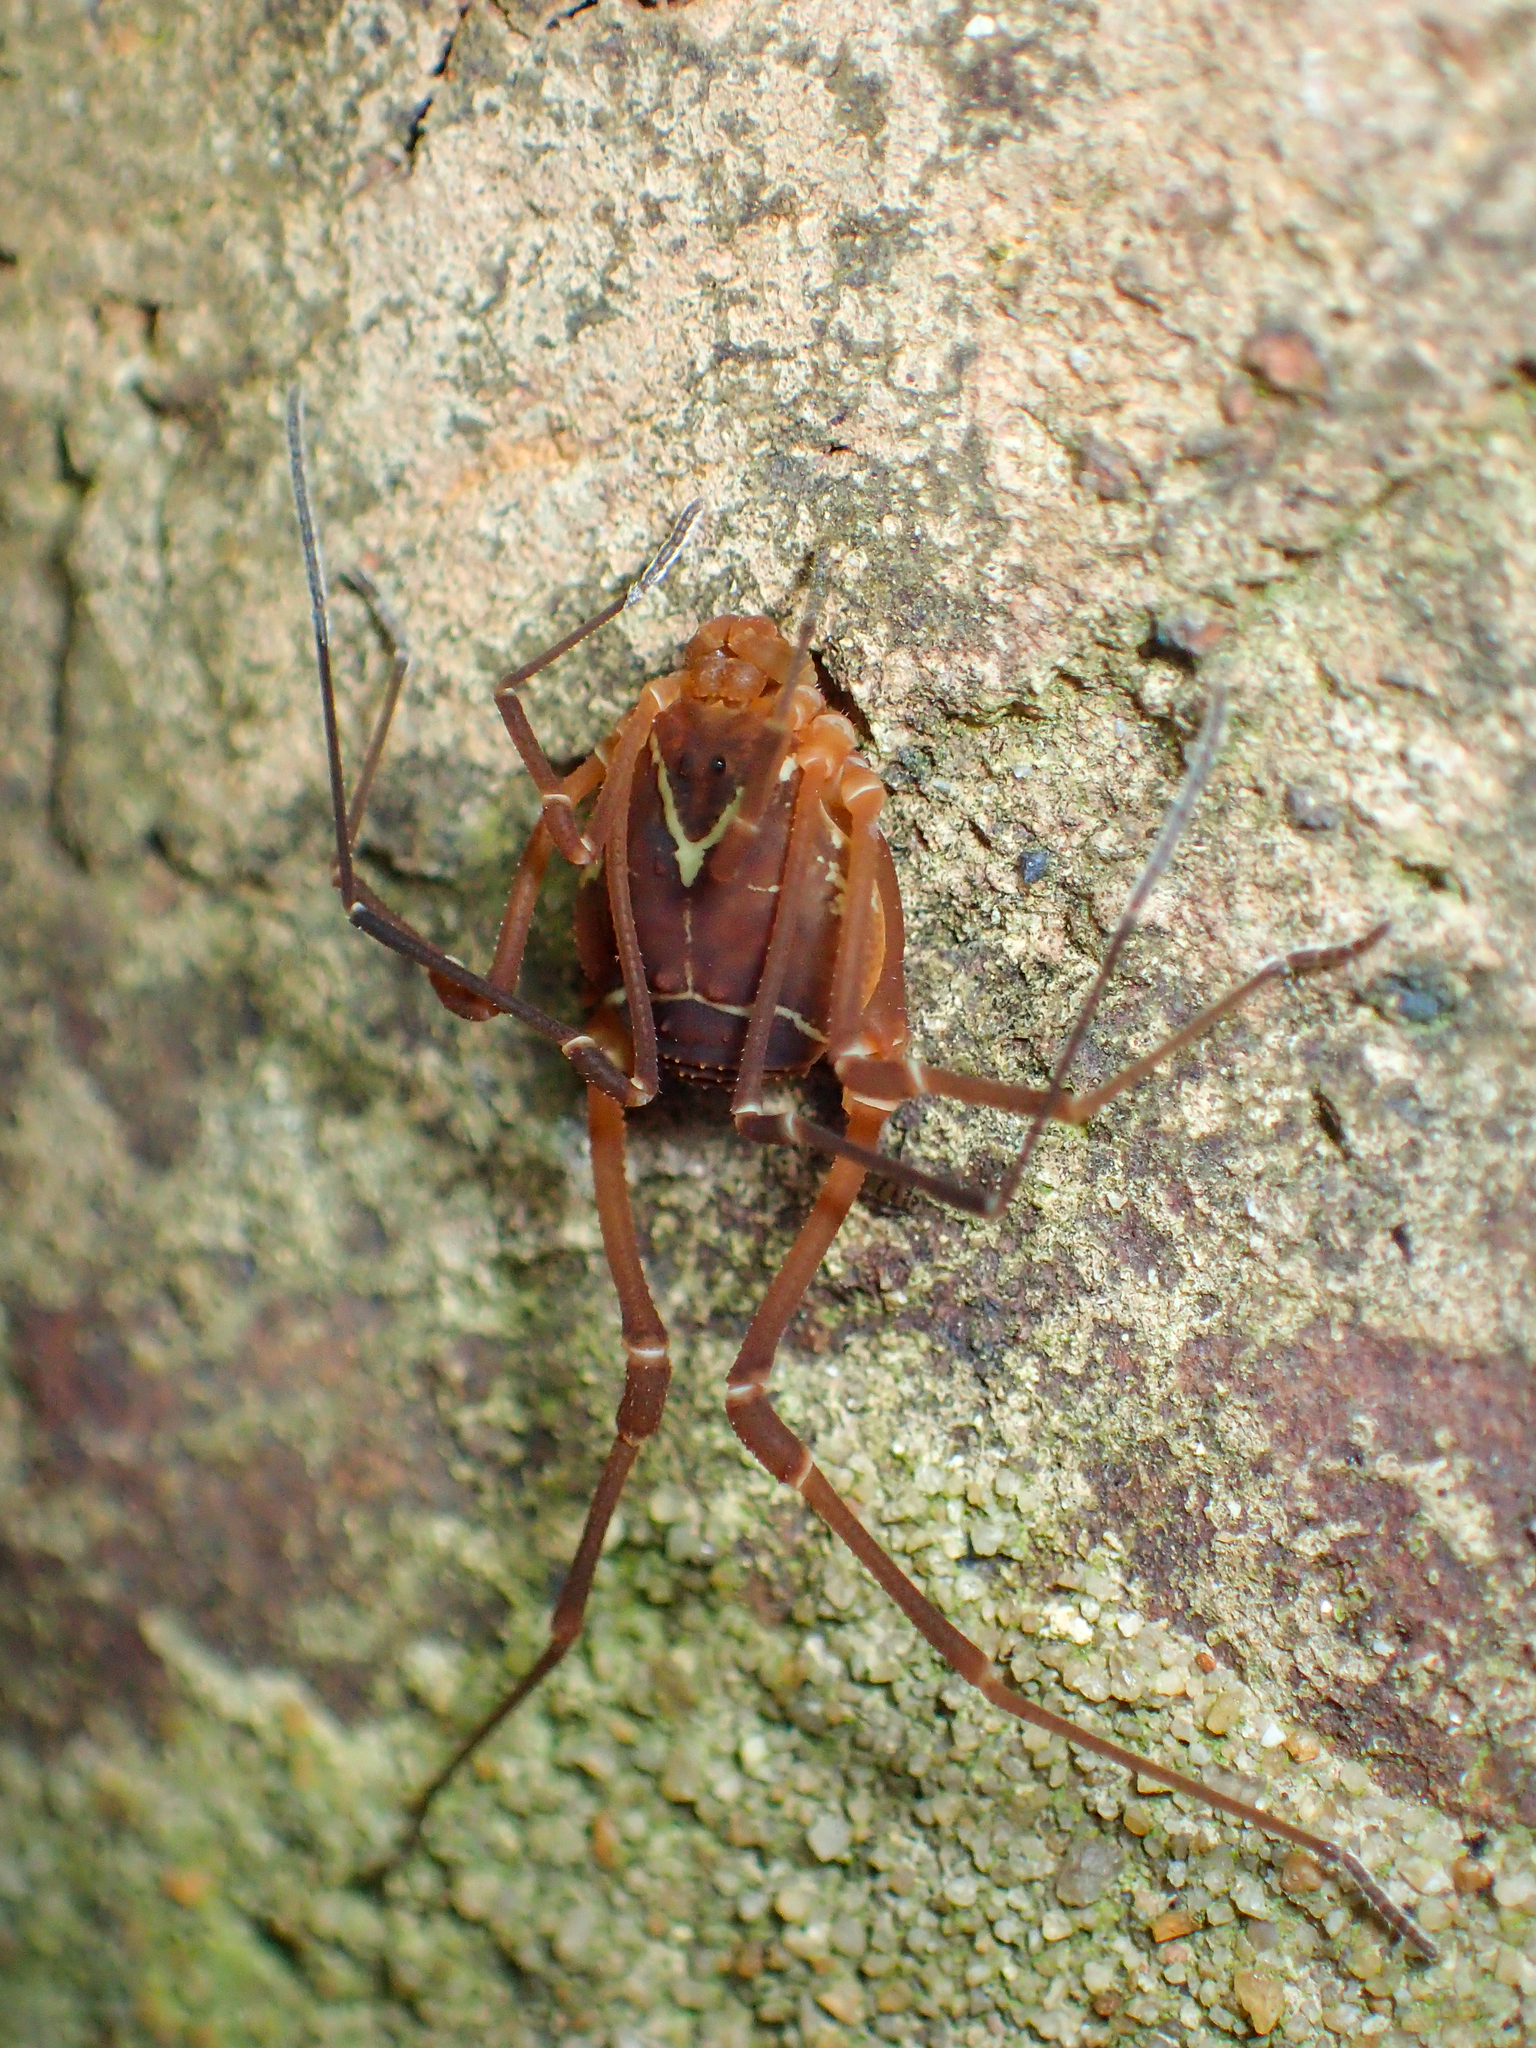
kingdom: Animalia
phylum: Arthropoda
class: Arachnida
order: Opiliones
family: Cosmetidae
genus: Libitioides
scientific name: Libitioides sayi
